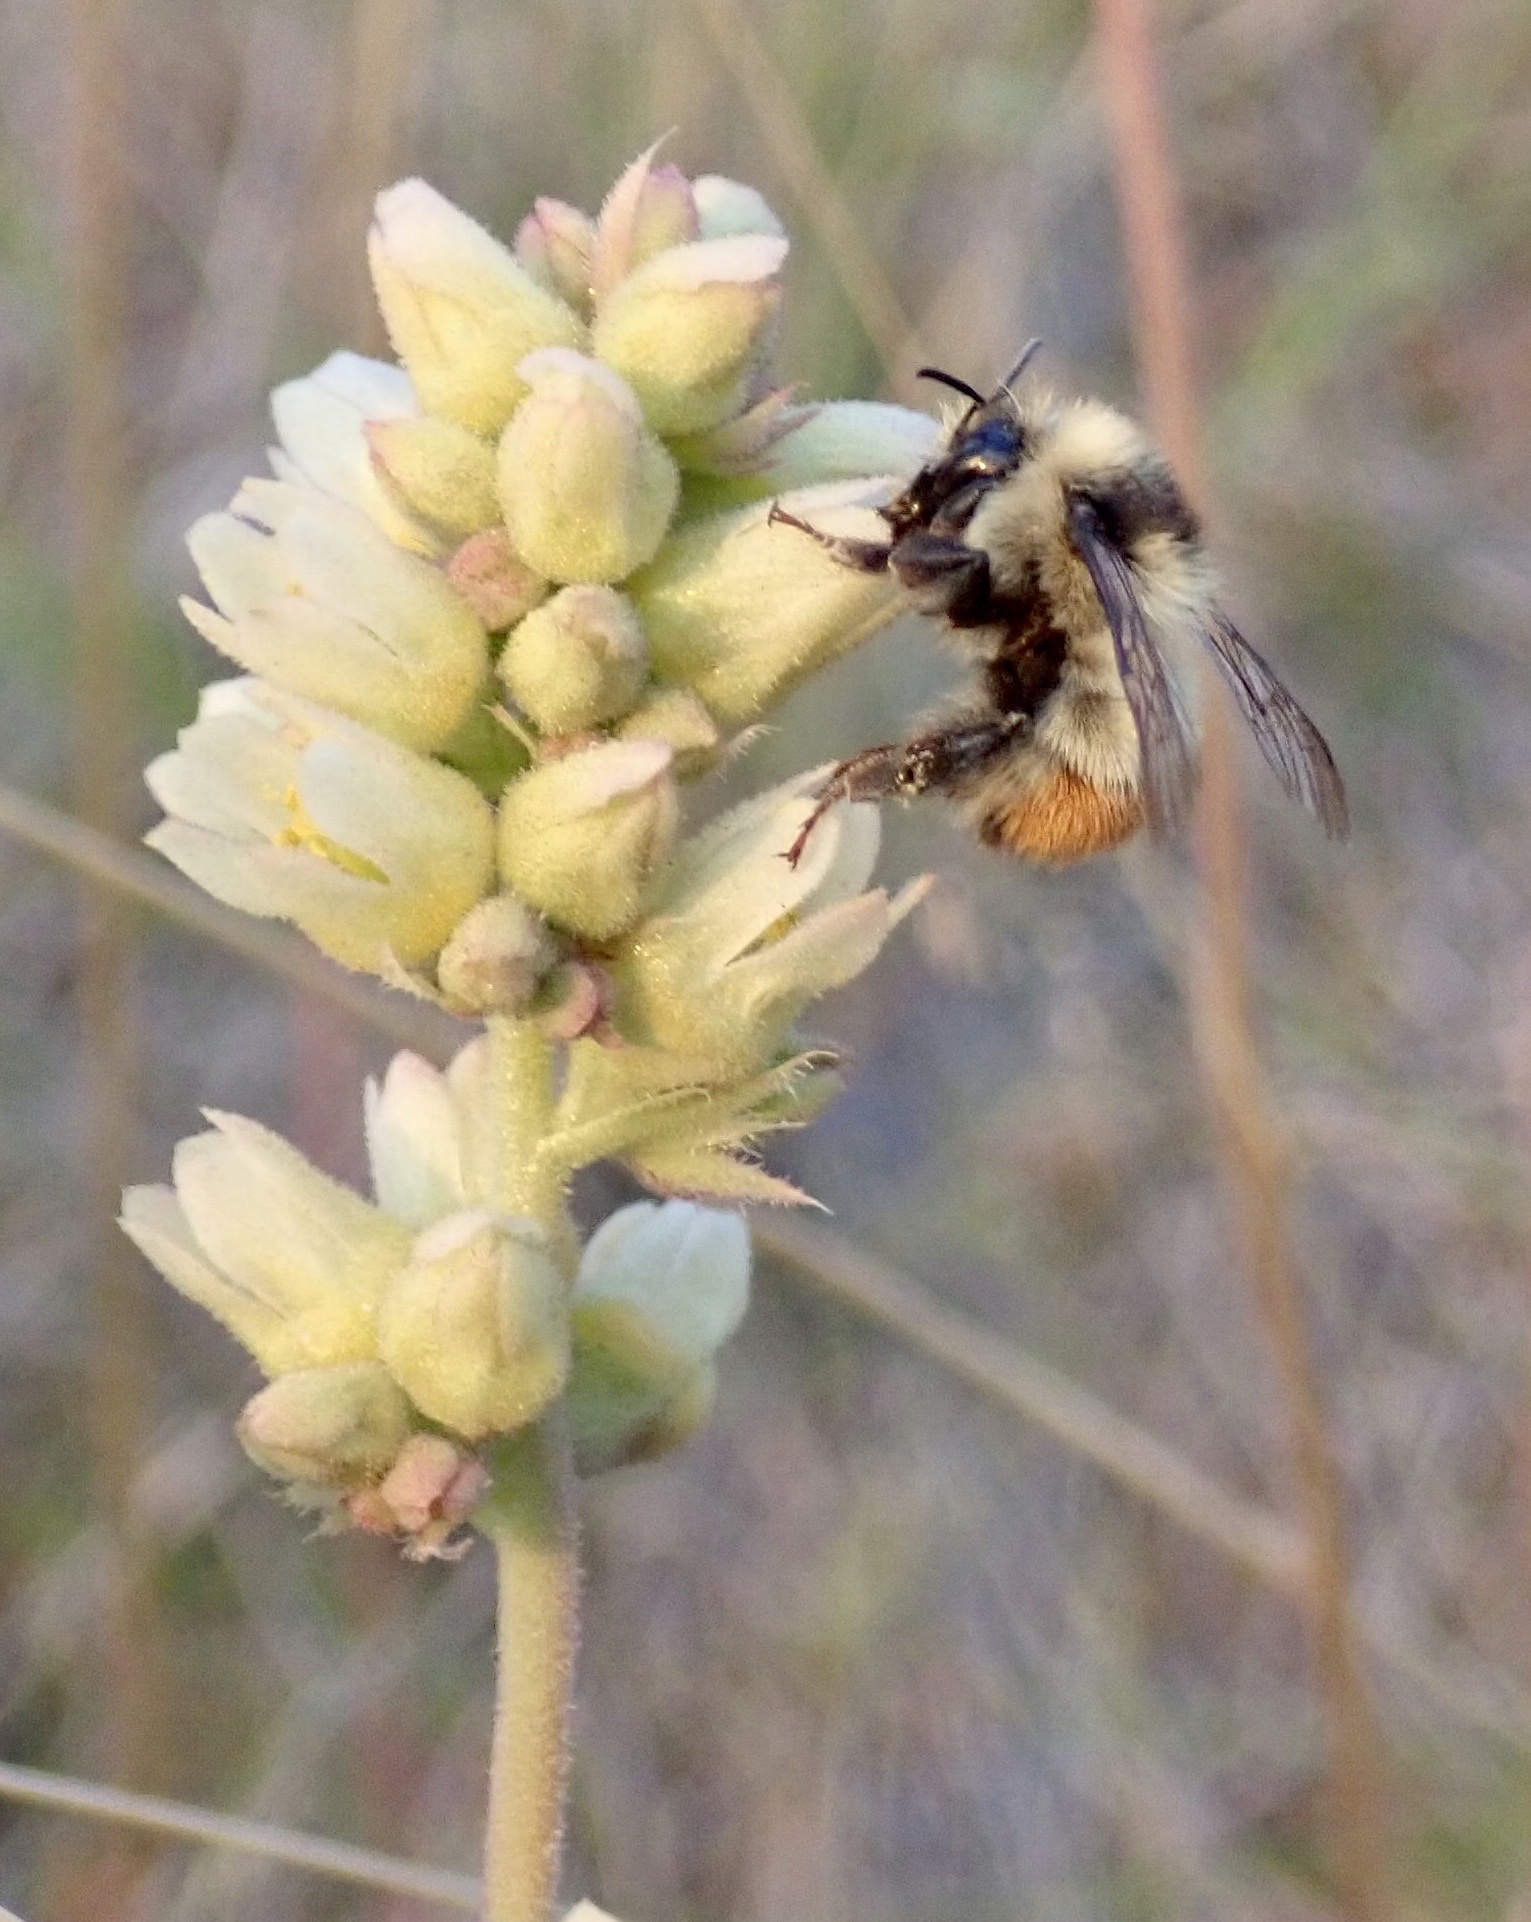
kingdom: Animalia
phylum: Arthropoda
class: Insecta
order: Hymenoptera
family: Apidae
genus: Bombus
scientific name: Bombus centralis
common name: Central bumble bee
